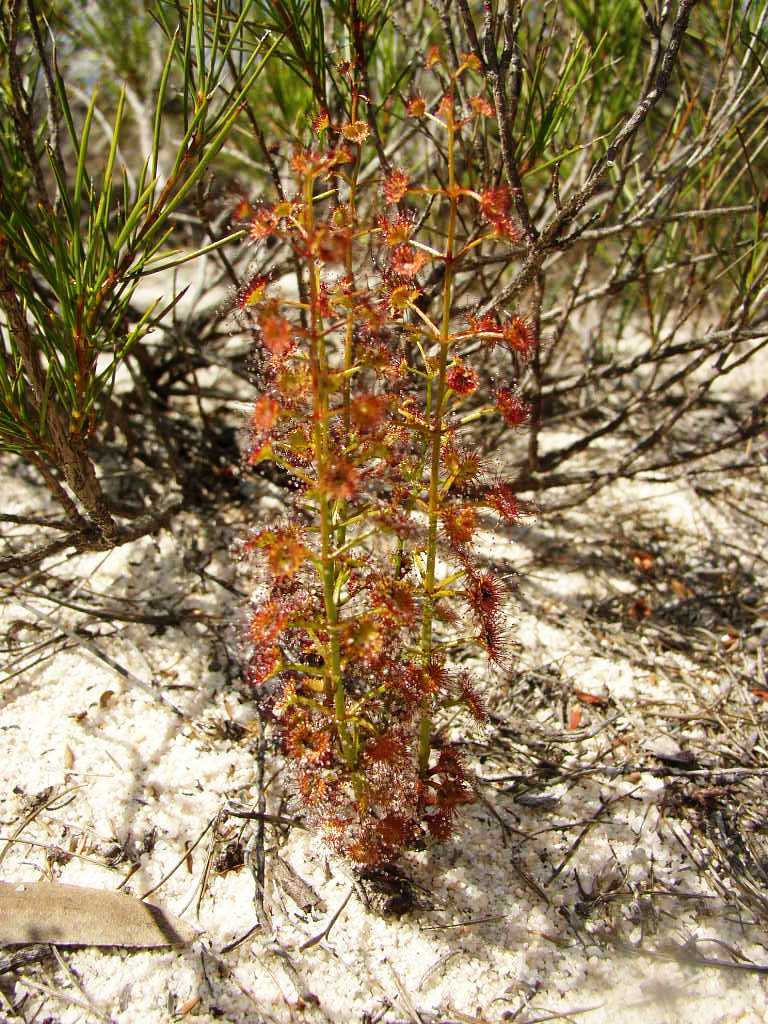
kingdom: Plantae
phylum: Tracheophyta
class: Magnoliopsida
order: Caryophyllales
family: Droseraceae
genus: Drosera
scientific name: Drosera stolonifera
